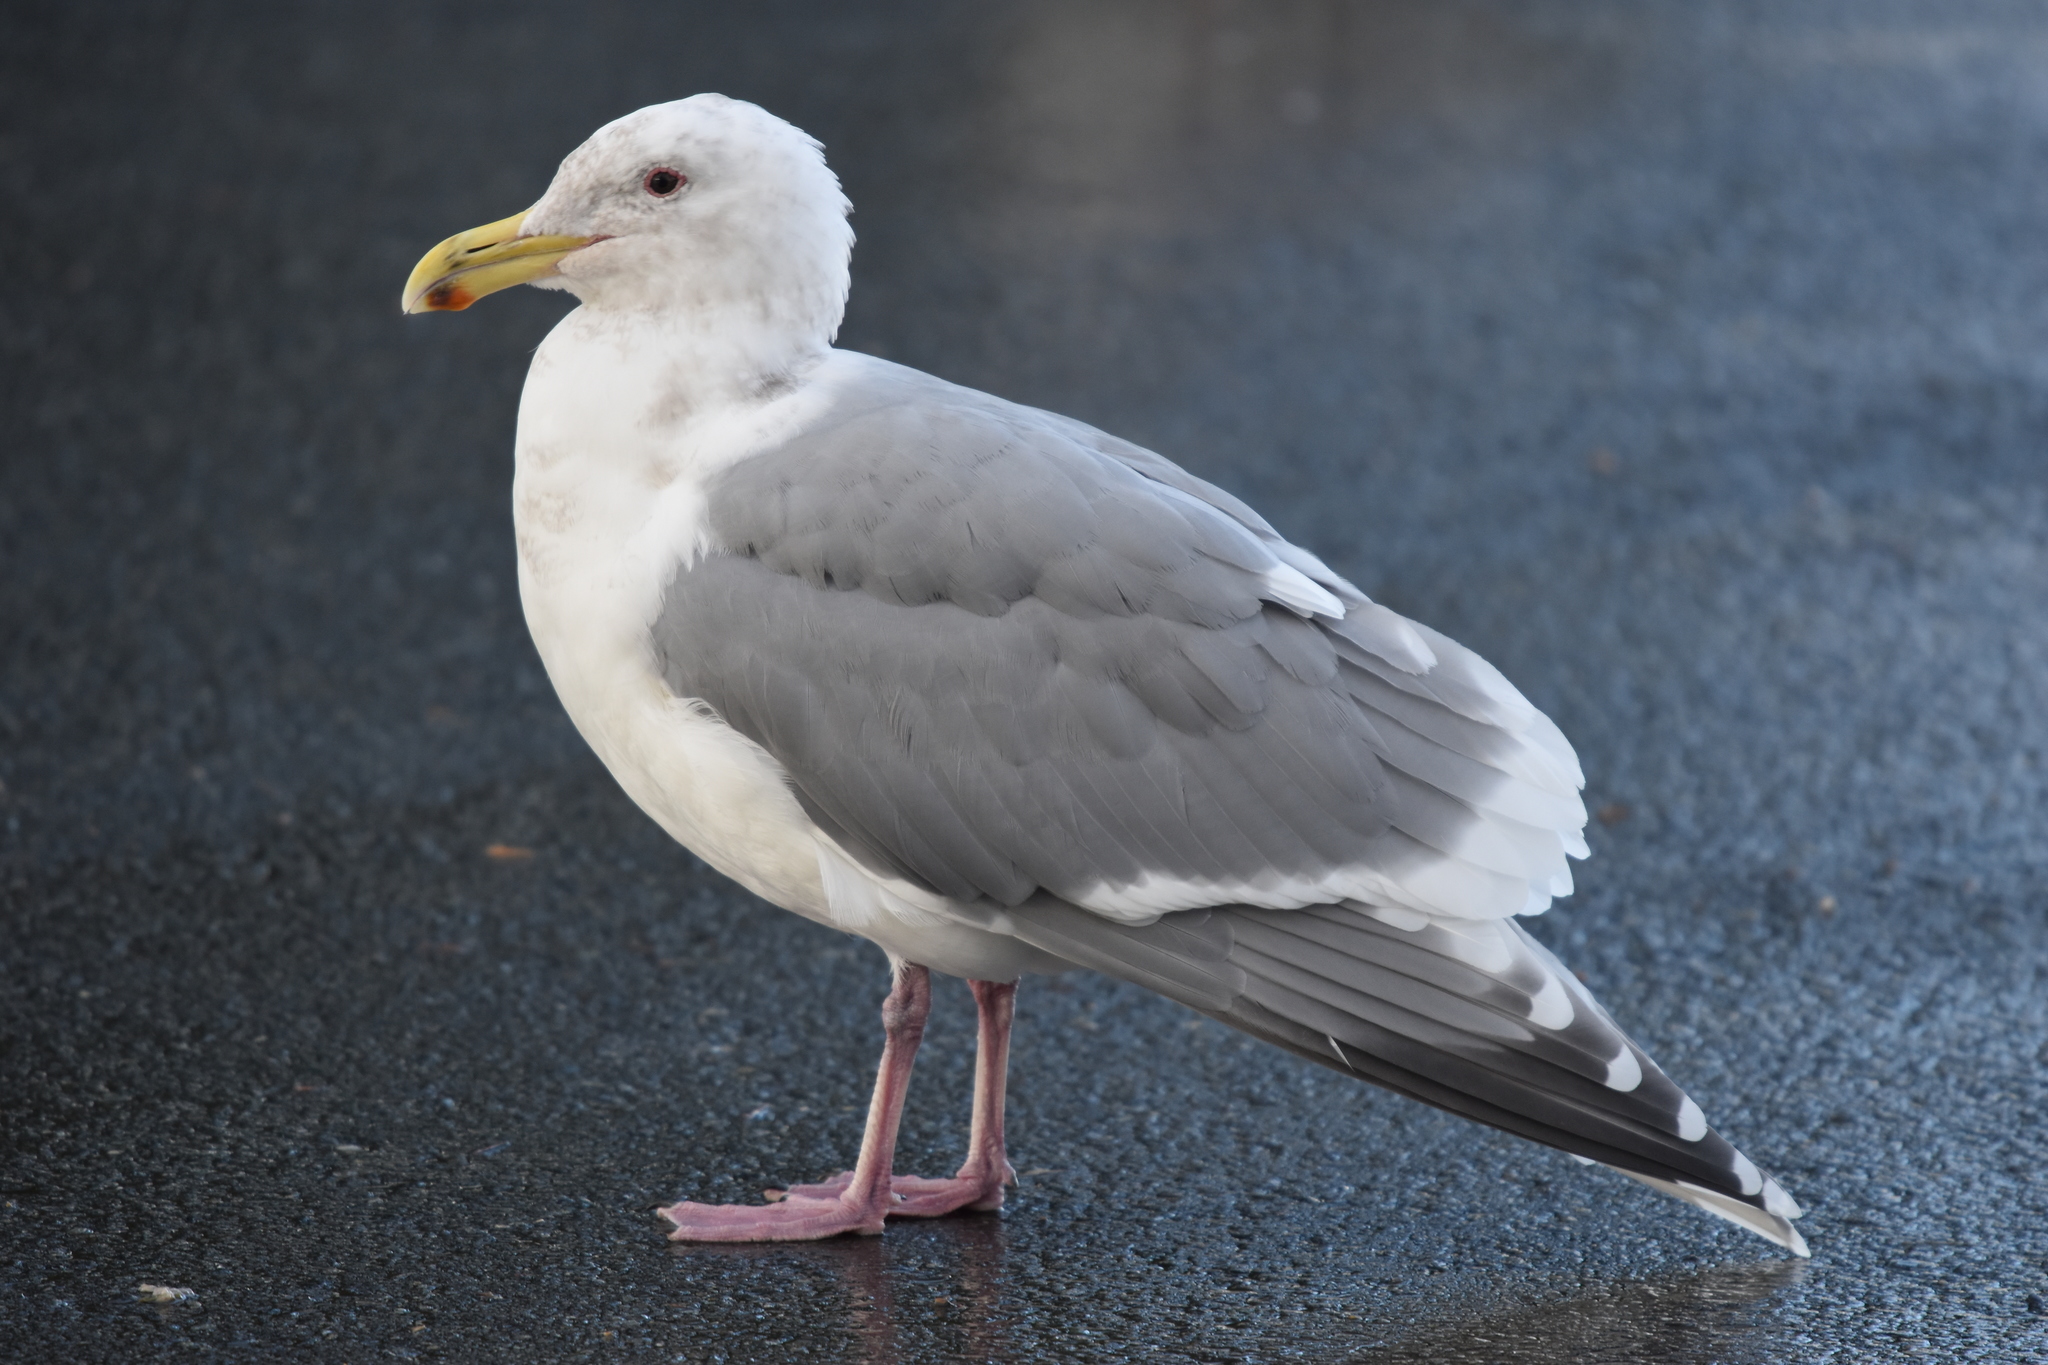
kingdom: Animalia
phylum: Chordata
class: Aves
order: Charadriiformes
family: Laridae
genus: Larus
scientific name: Larus
